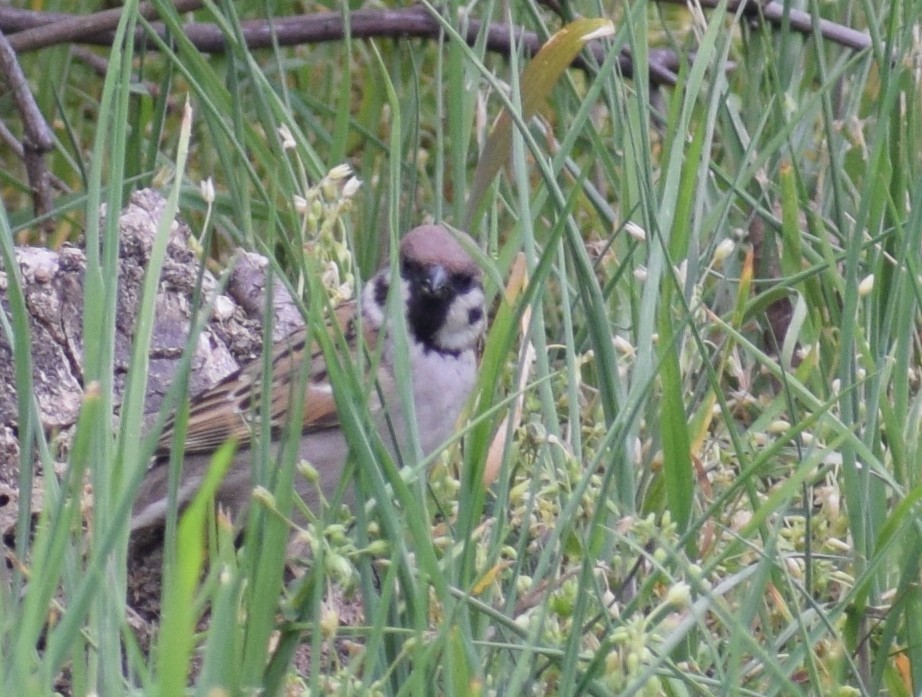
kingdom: Animalia
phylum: Chordata
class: Aves
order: Passeriformes
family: Passeridae
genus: Passer
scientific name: Passer montanus
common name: Eurasian tree sparrow
